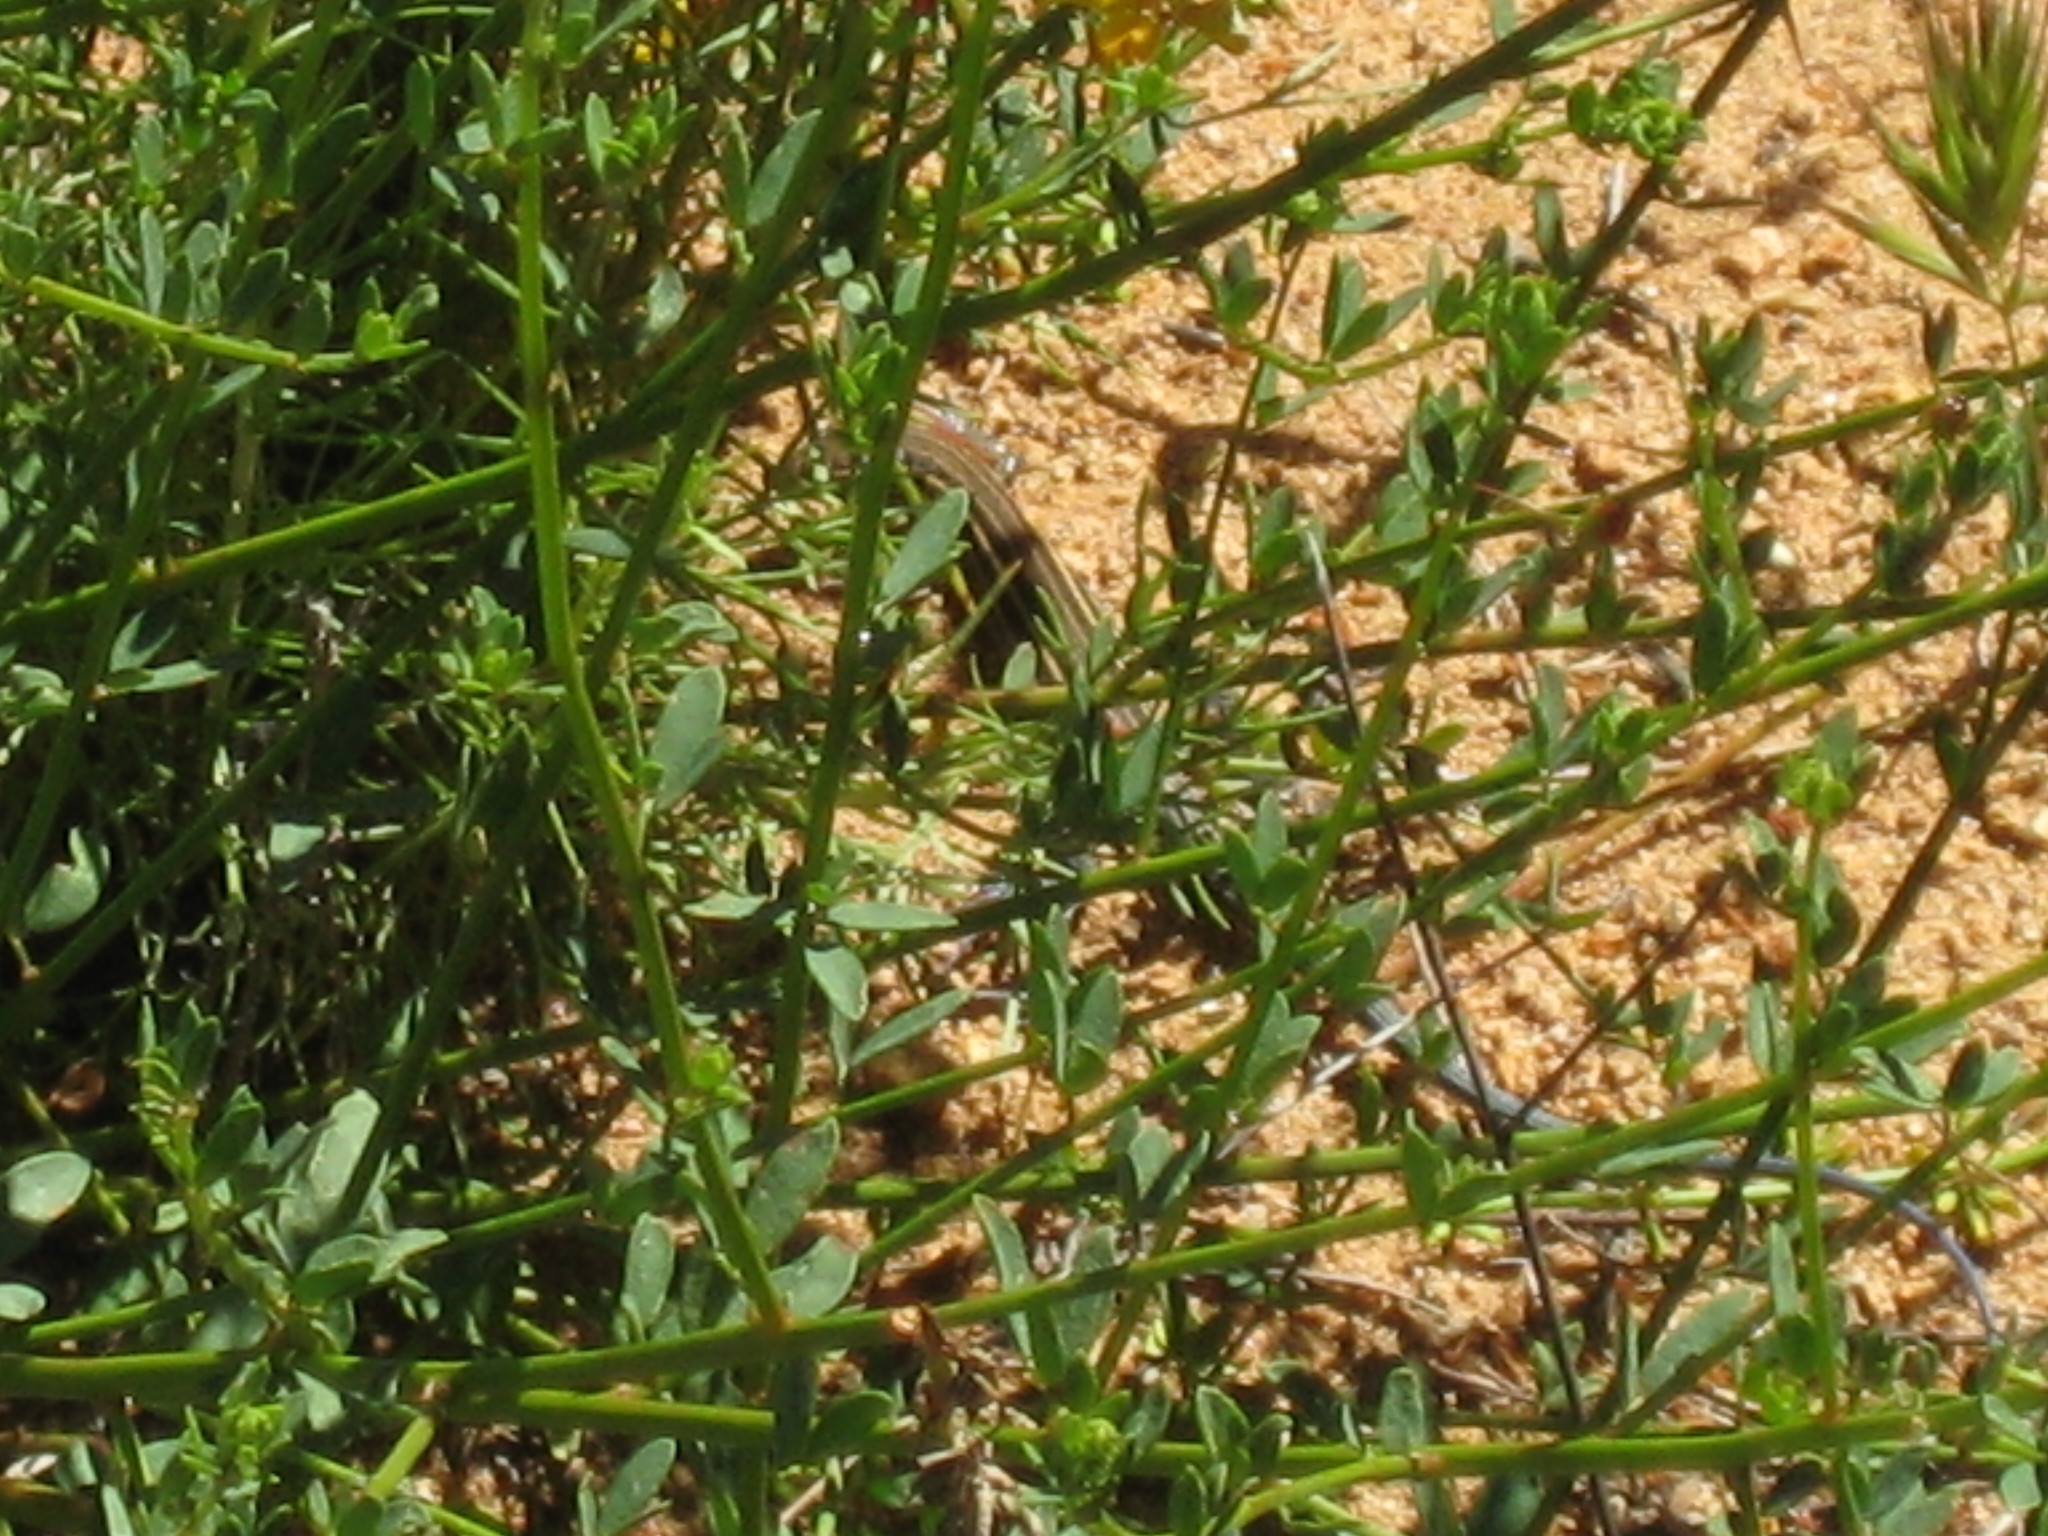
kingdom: Animalia
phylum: Chordata
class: Squamata
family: Teiidae
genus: Aspidoscelis
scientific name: Aspidoscelis hyperythrus
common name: Orange-throated race-runner
